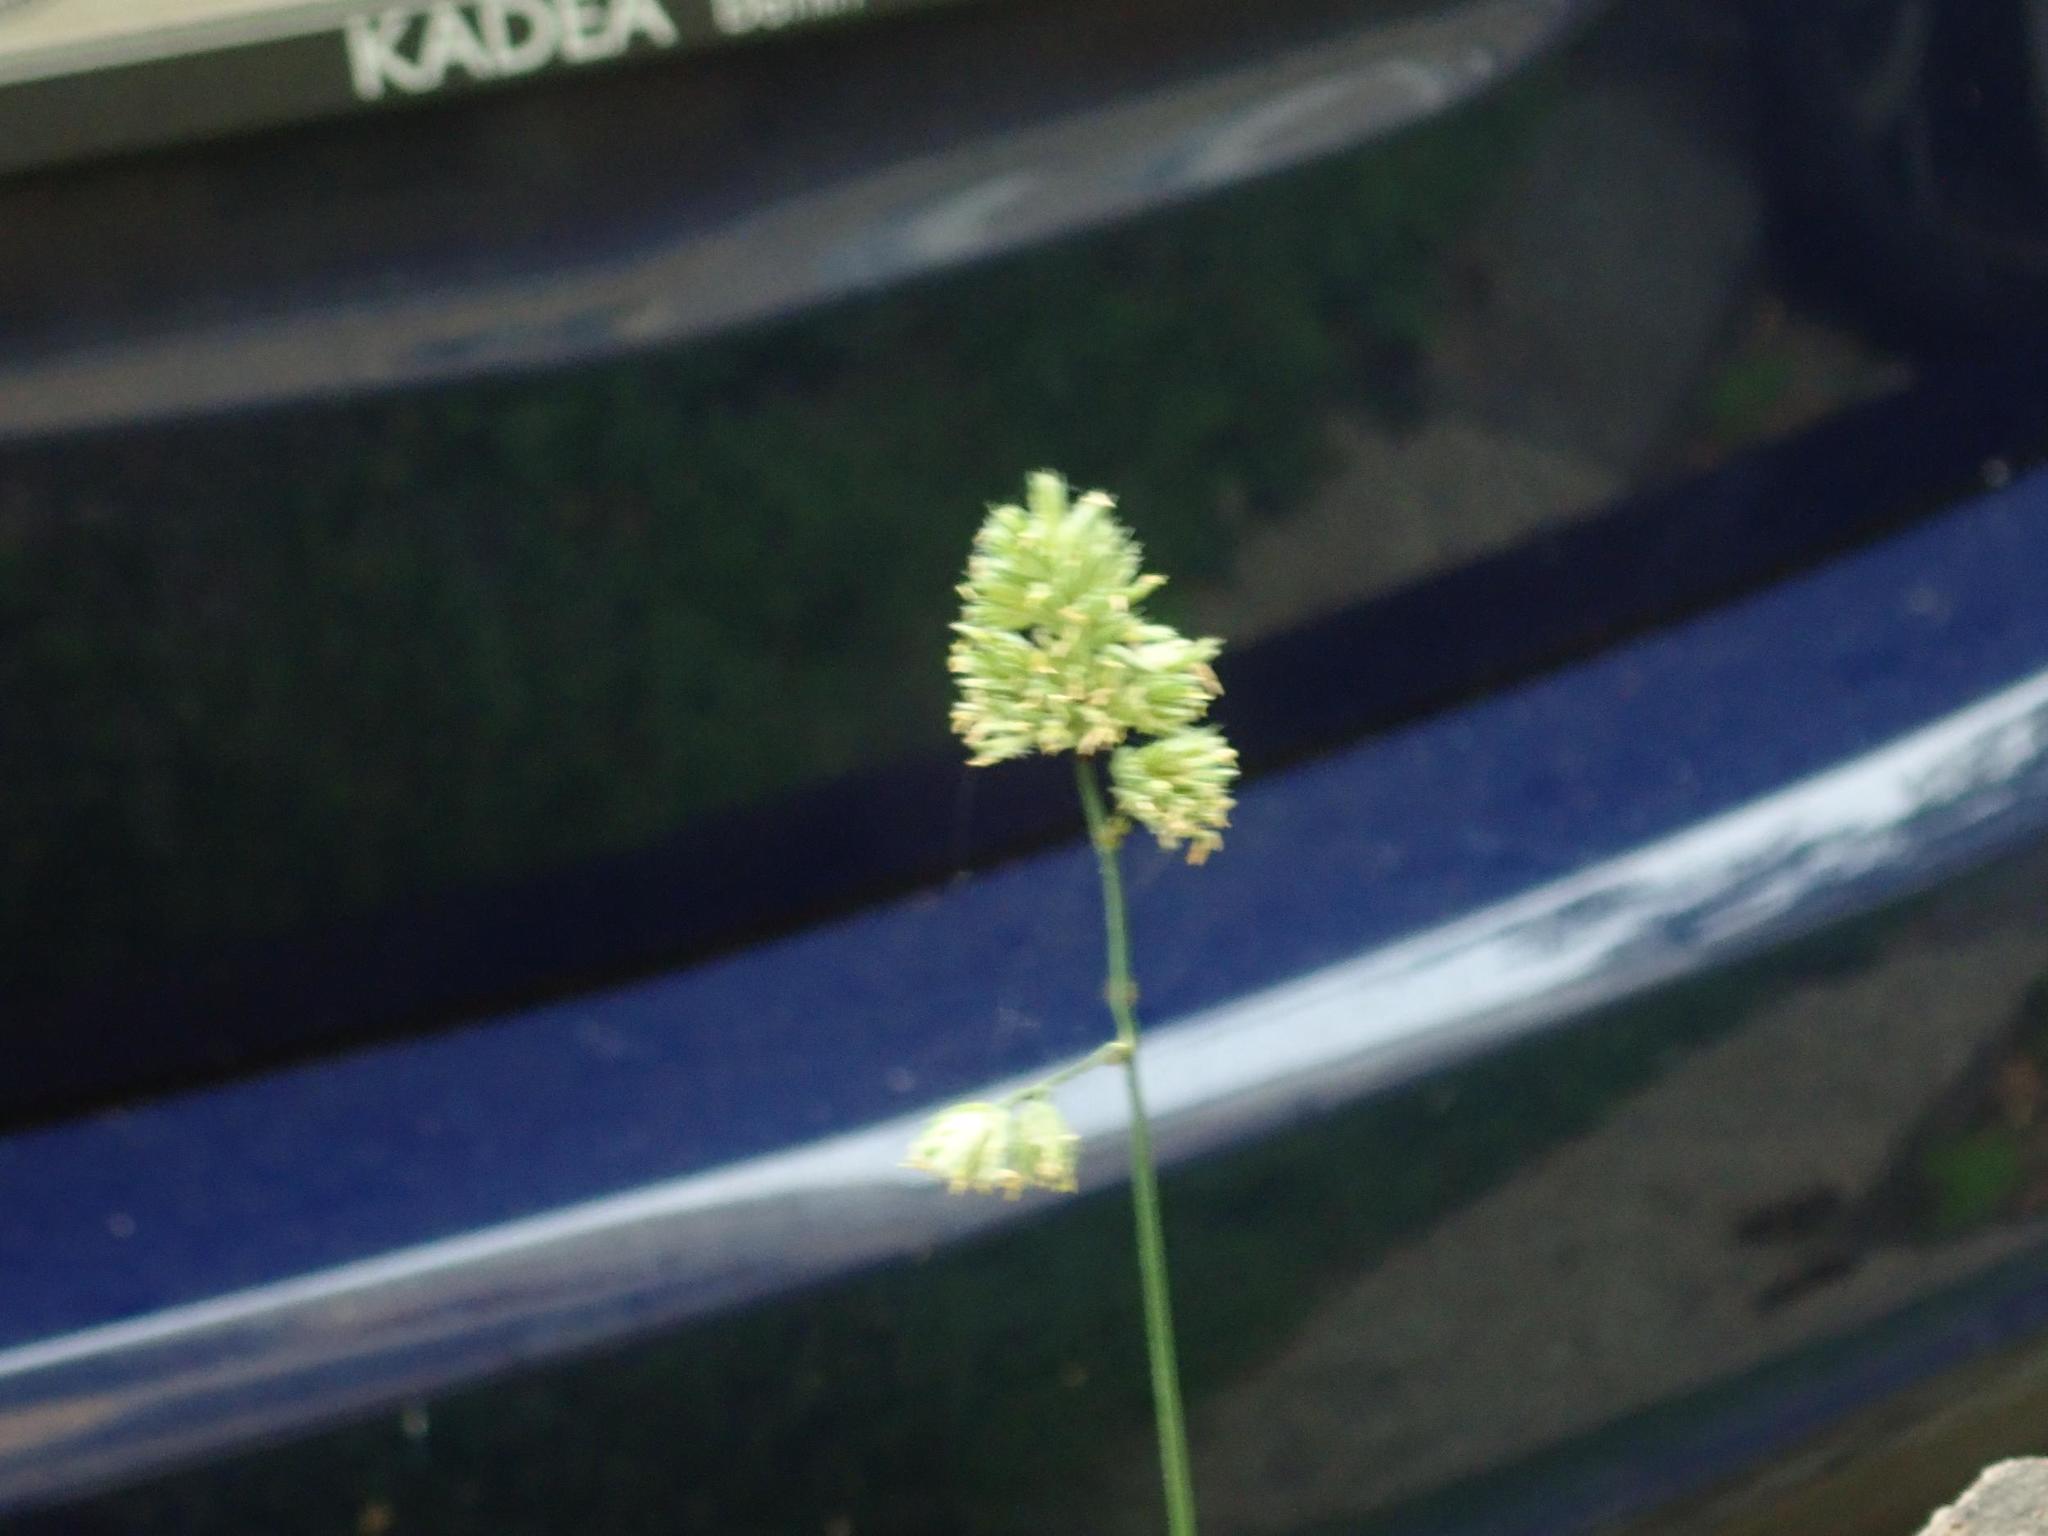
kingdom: Plantae
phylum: Tracheophyta
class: Liliopsida
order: Poales
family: Poaceae
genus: Dactylis
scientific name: Dactylis glomerata
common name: Orchardgrass
